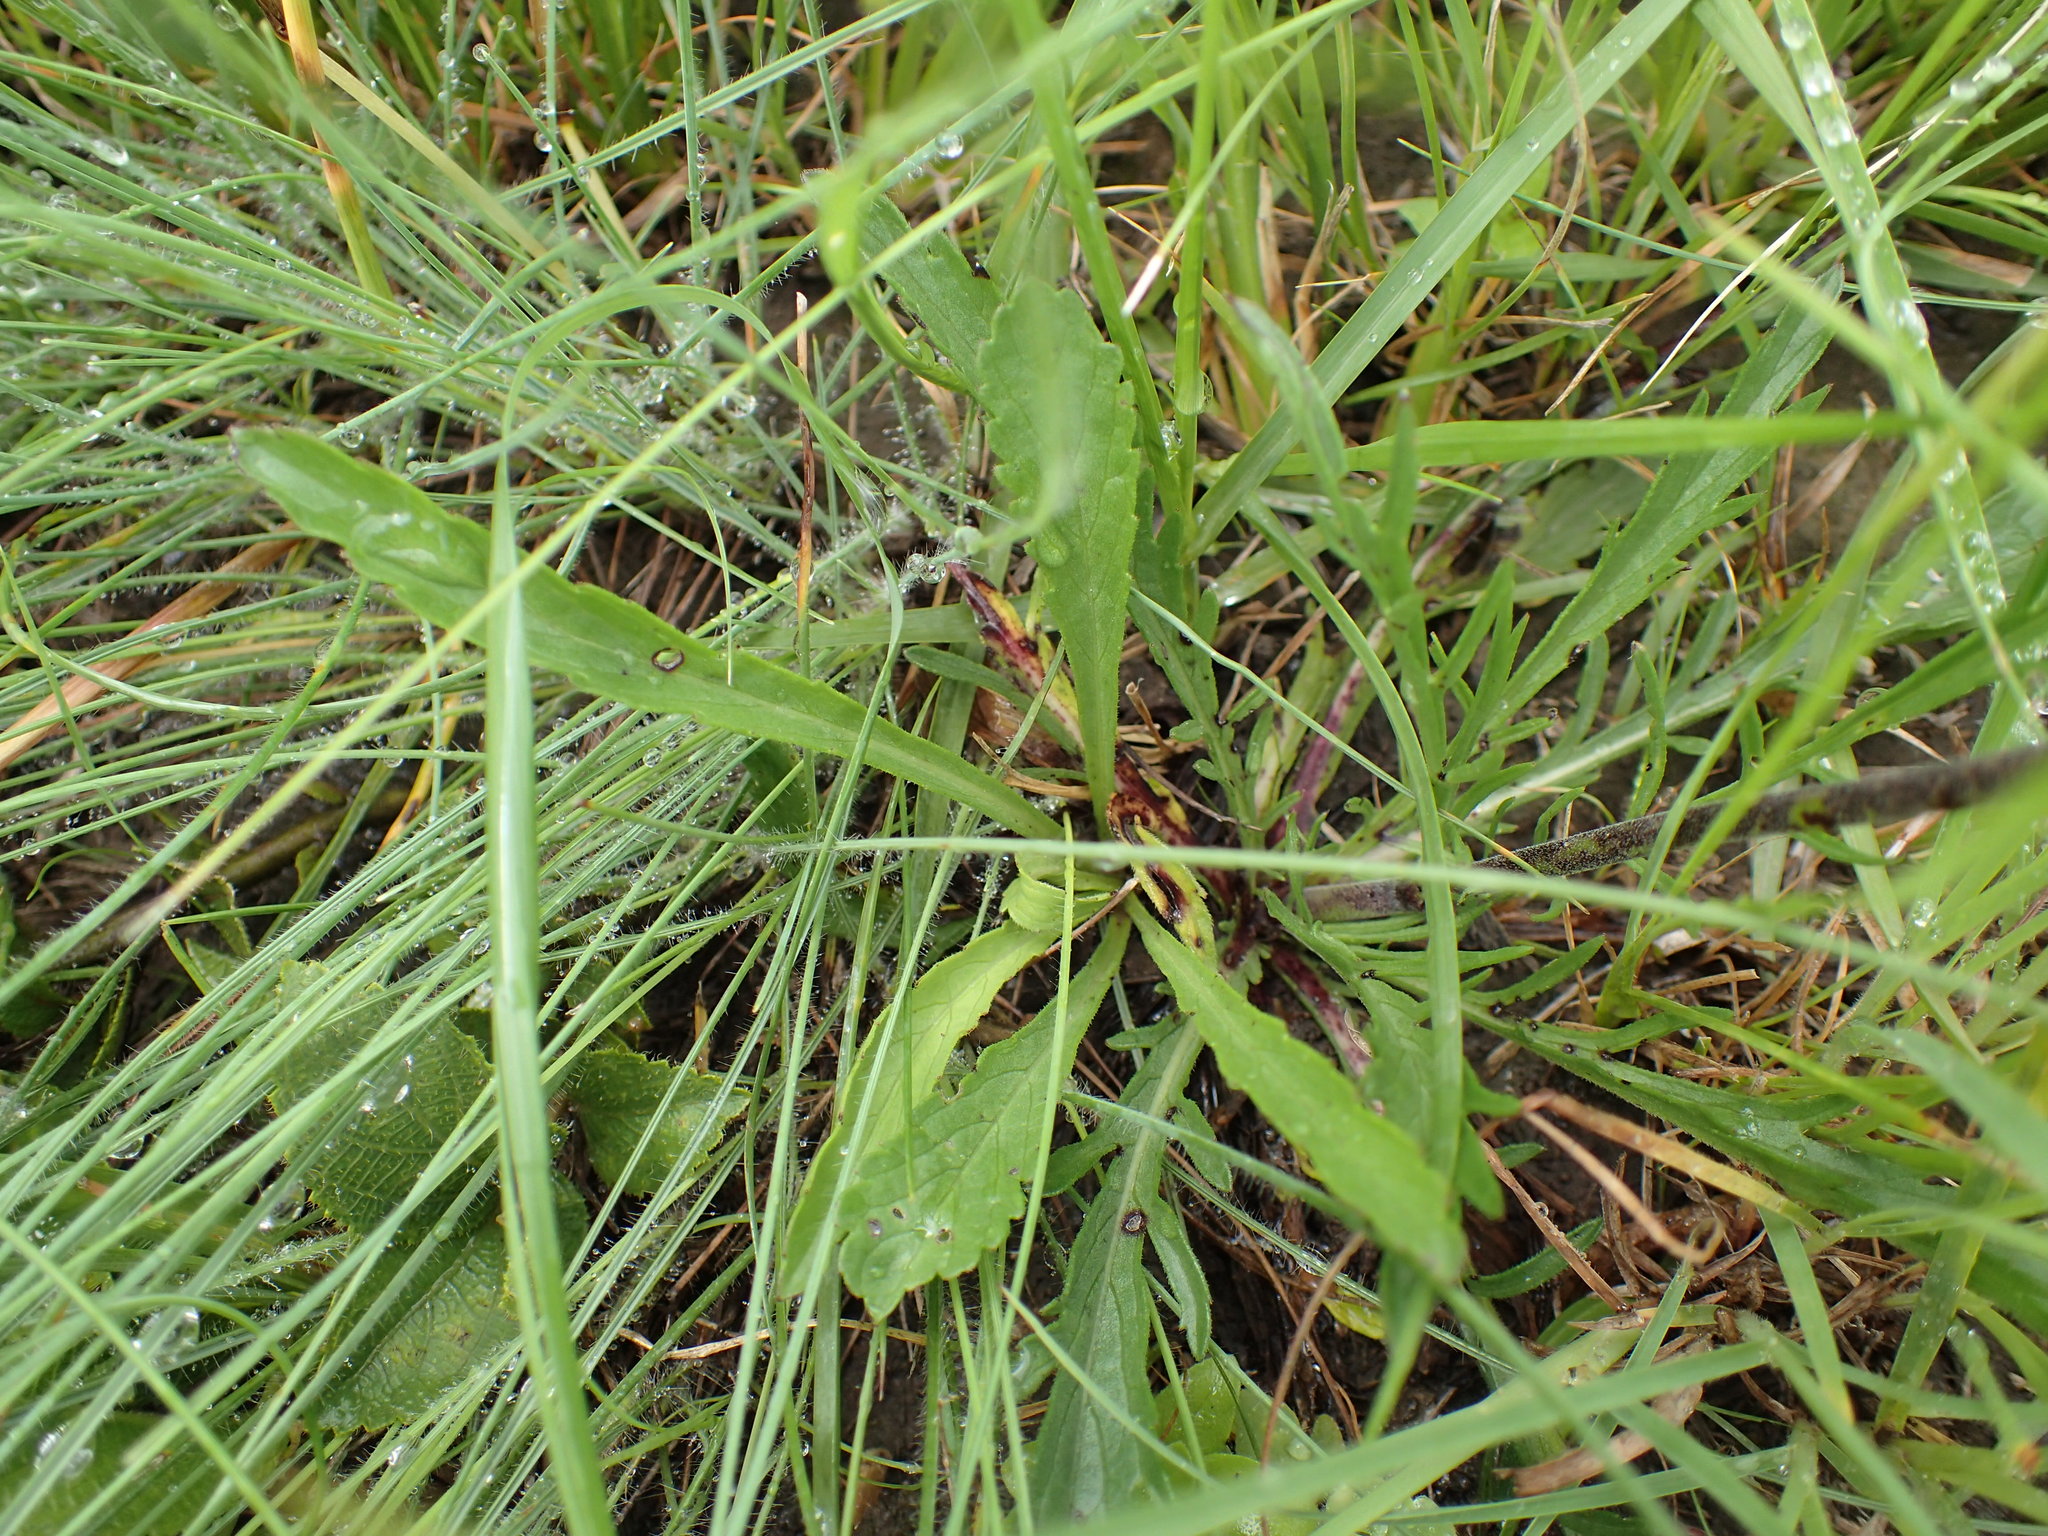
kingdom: Plantae
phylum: Tracheophyta
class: Magnoliopsida
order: Dipsacales
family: Caprifoliaceae
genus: Scabiosa
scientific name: Scabiosa columbaria
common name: Small scabious
